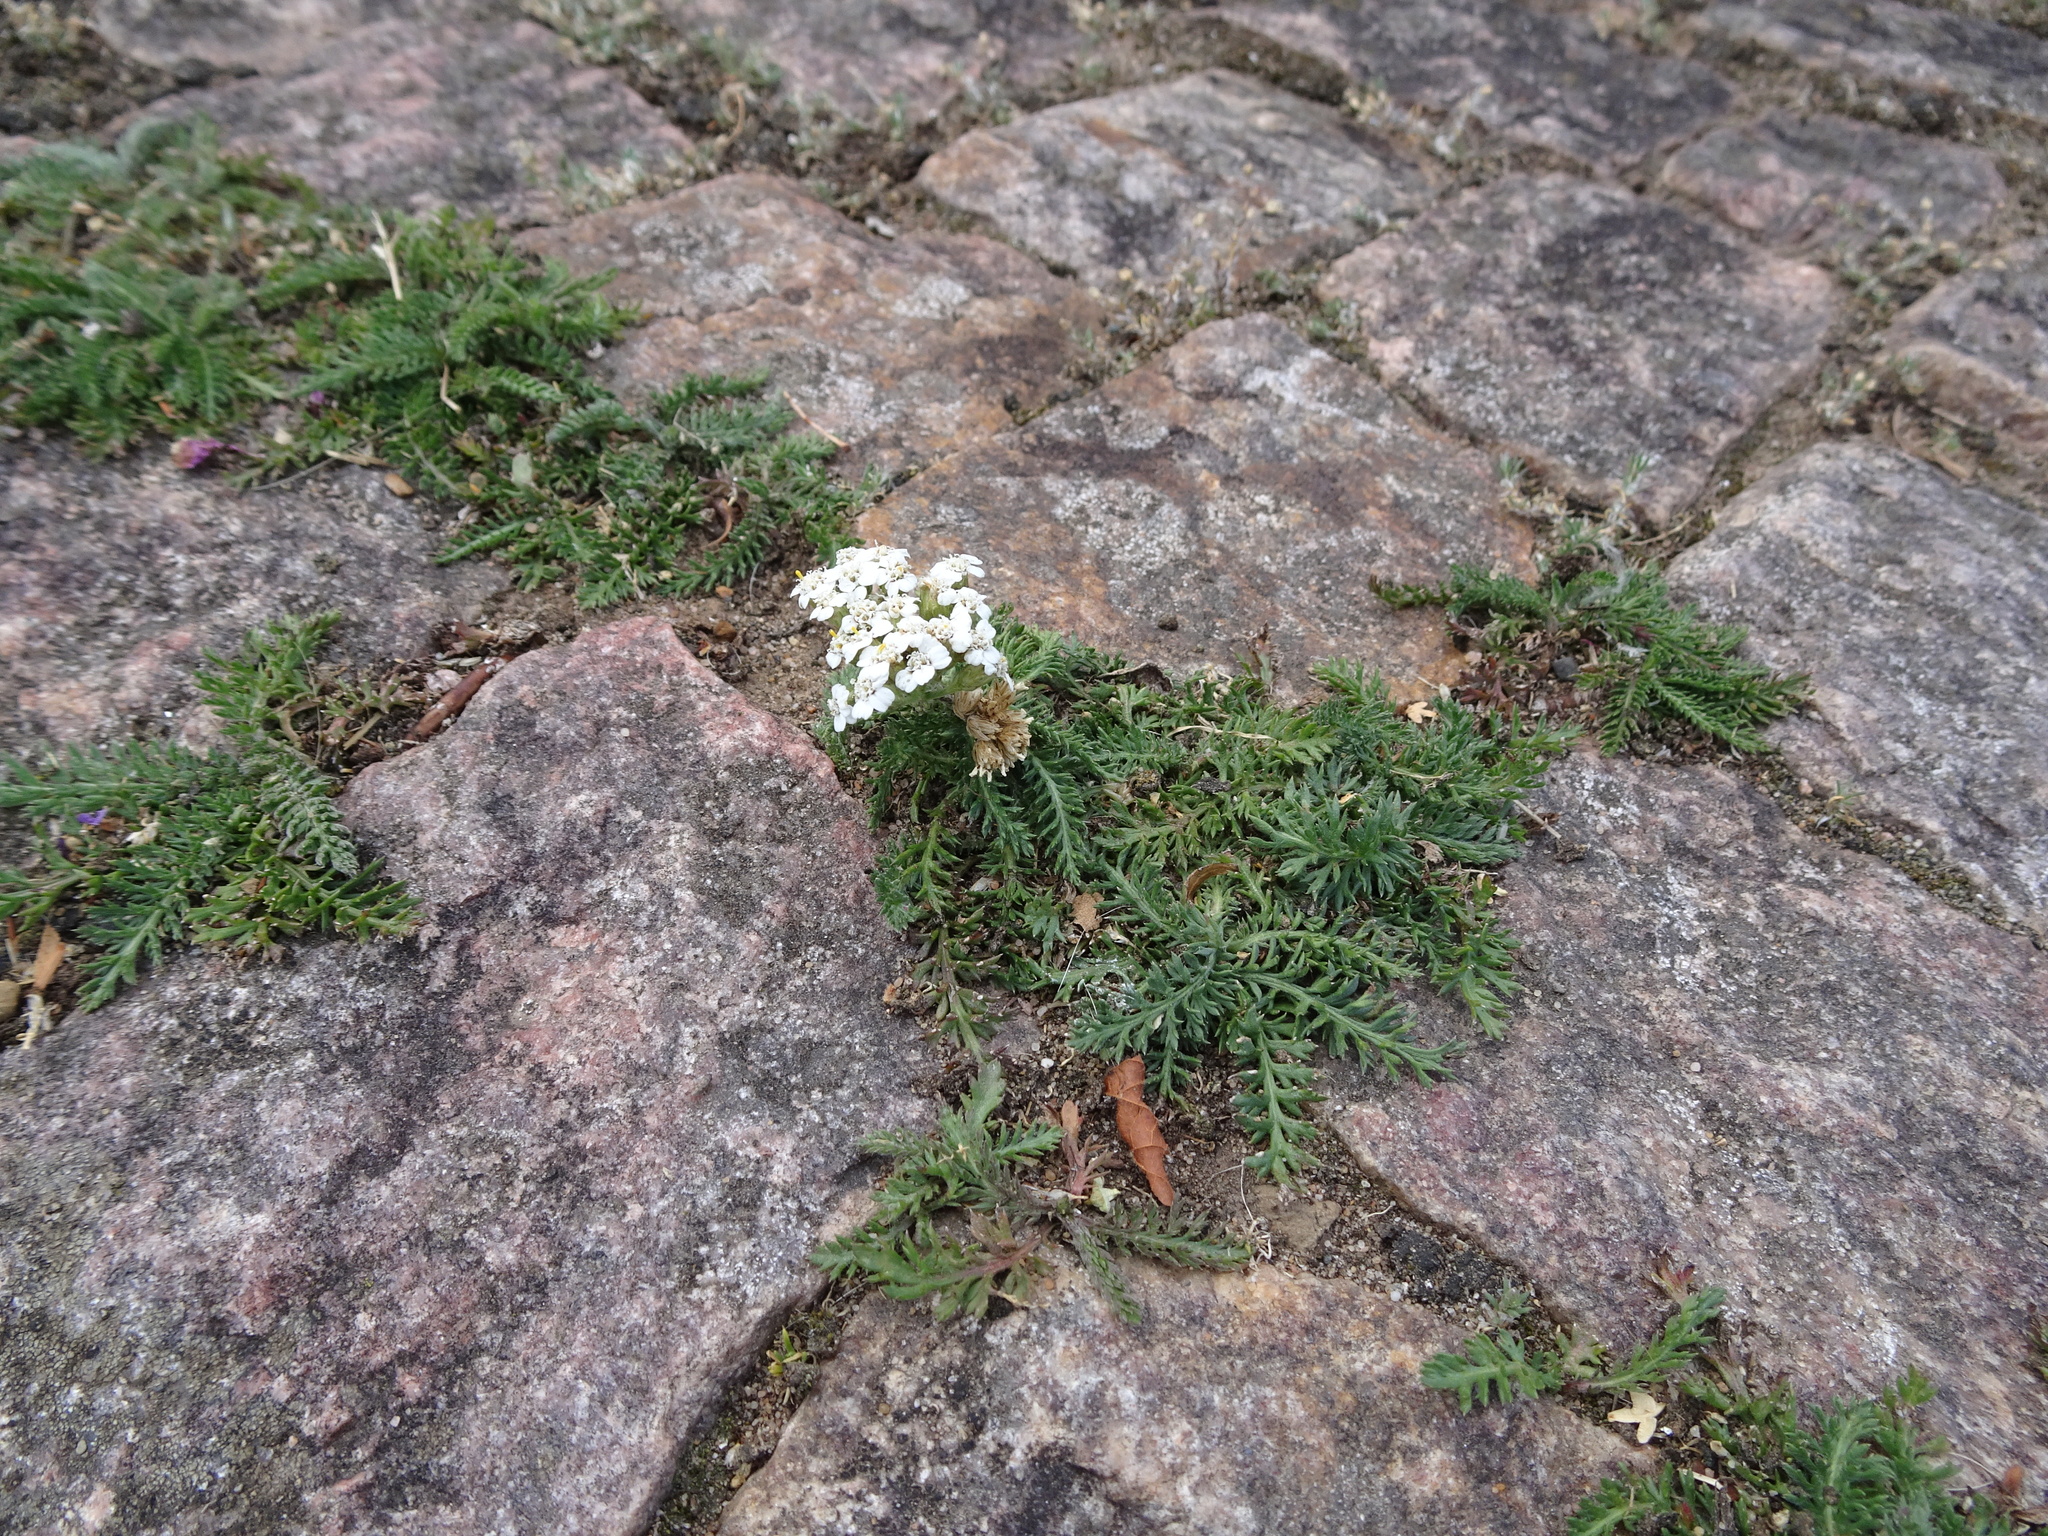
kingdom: Plantae
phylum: Tracheophyta
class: Magnoliopsida
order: Asterales
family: Asteraceae
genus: Achillea
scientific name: Achillea millefolium
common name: Yarrow
